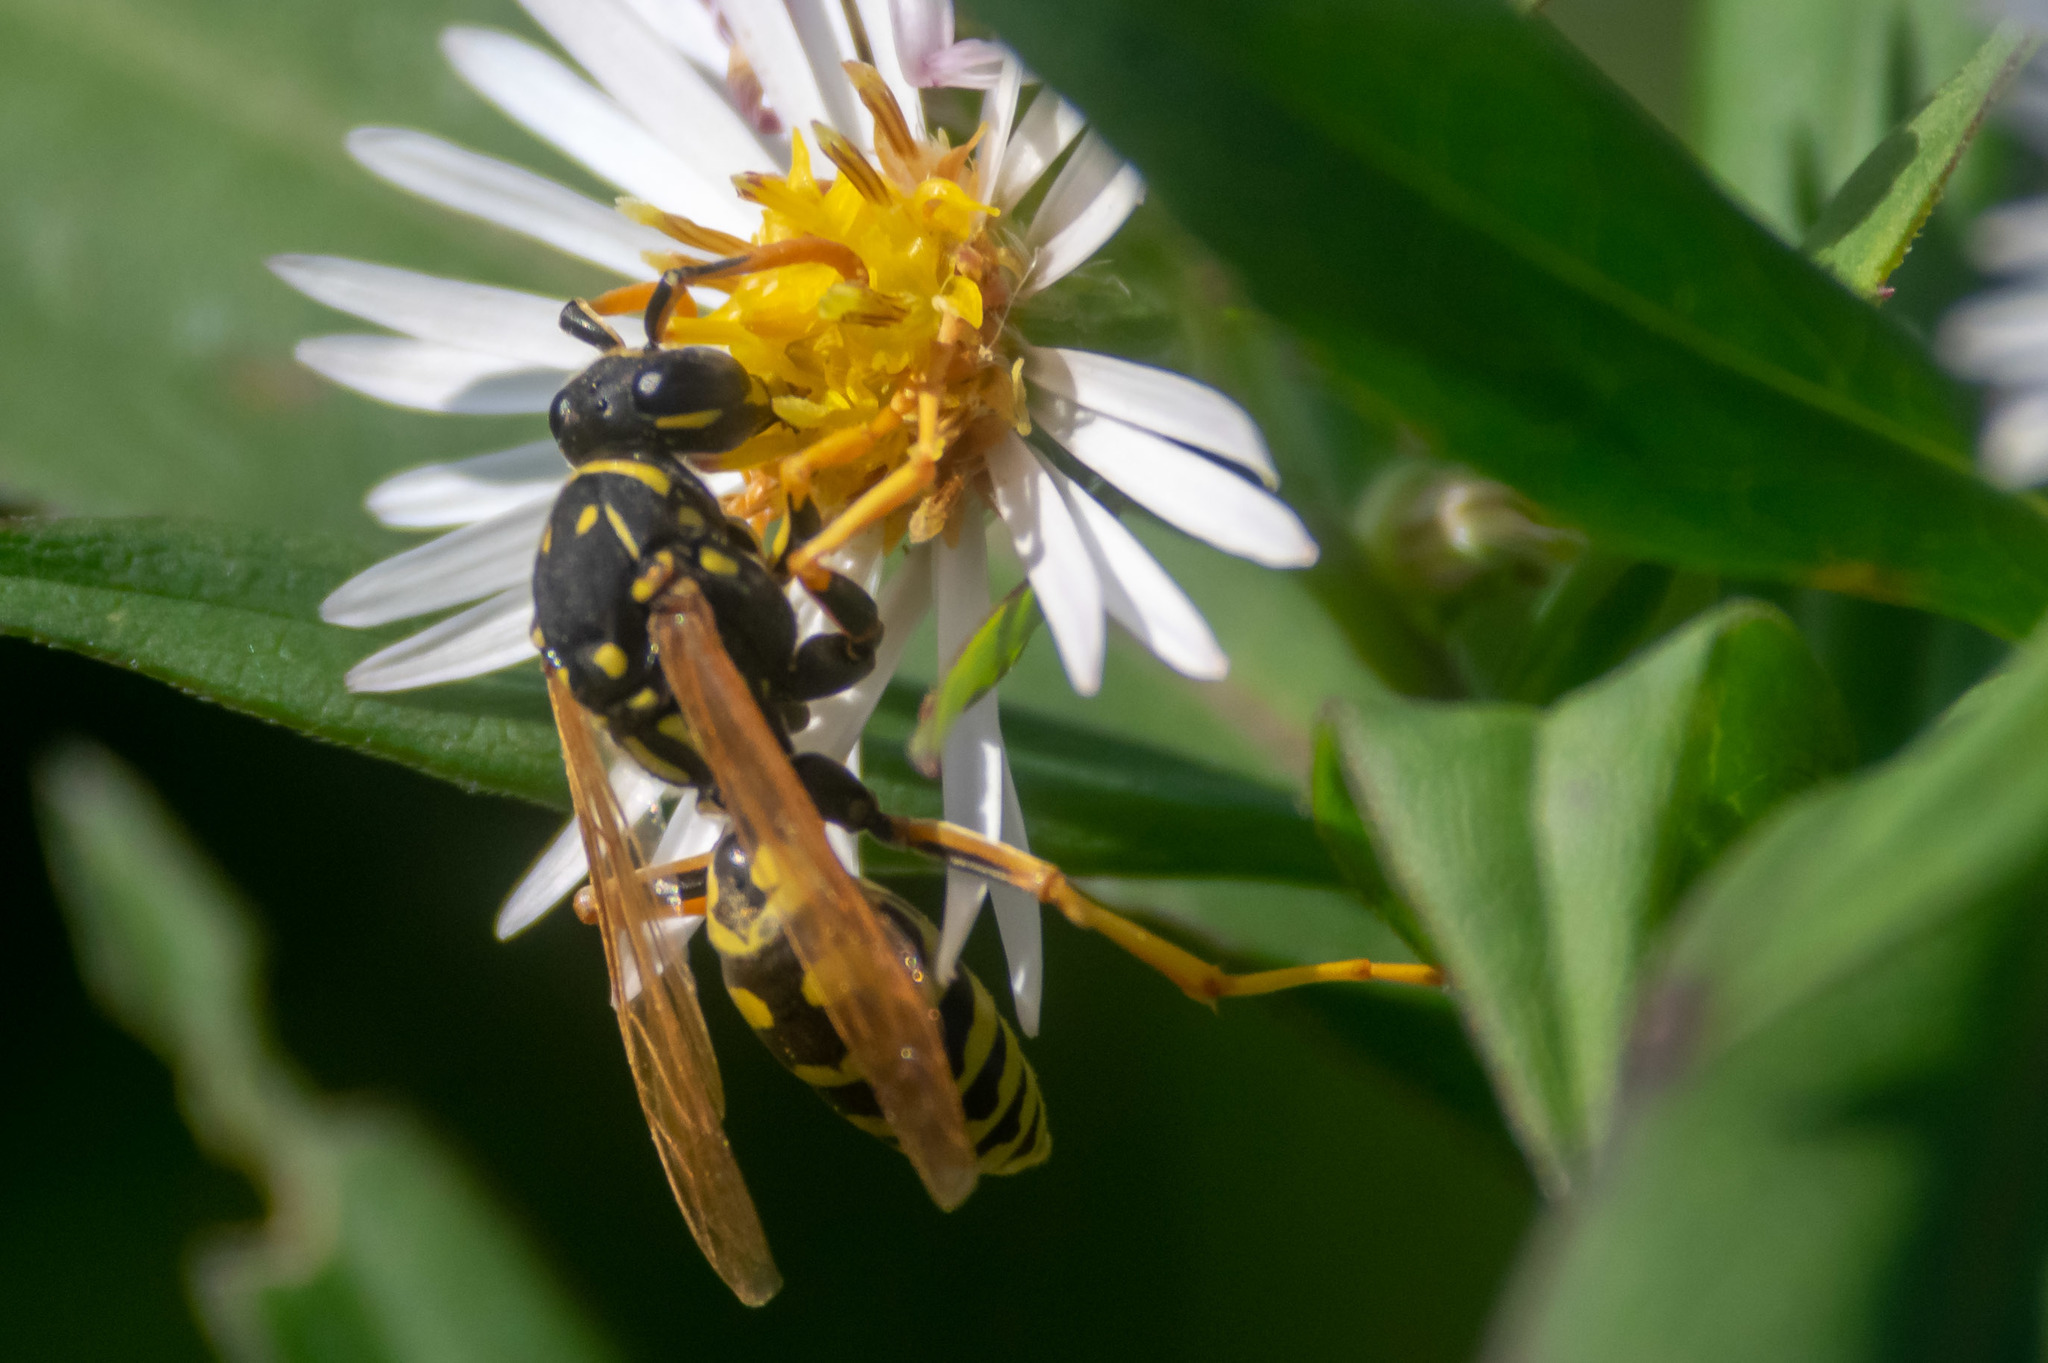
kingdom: Animalia
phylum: Arthropoda
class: Insecta
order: Hymenoptera
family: Eumenidae
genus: Polistes
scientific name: Polistes dominula
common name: Paper wasp
